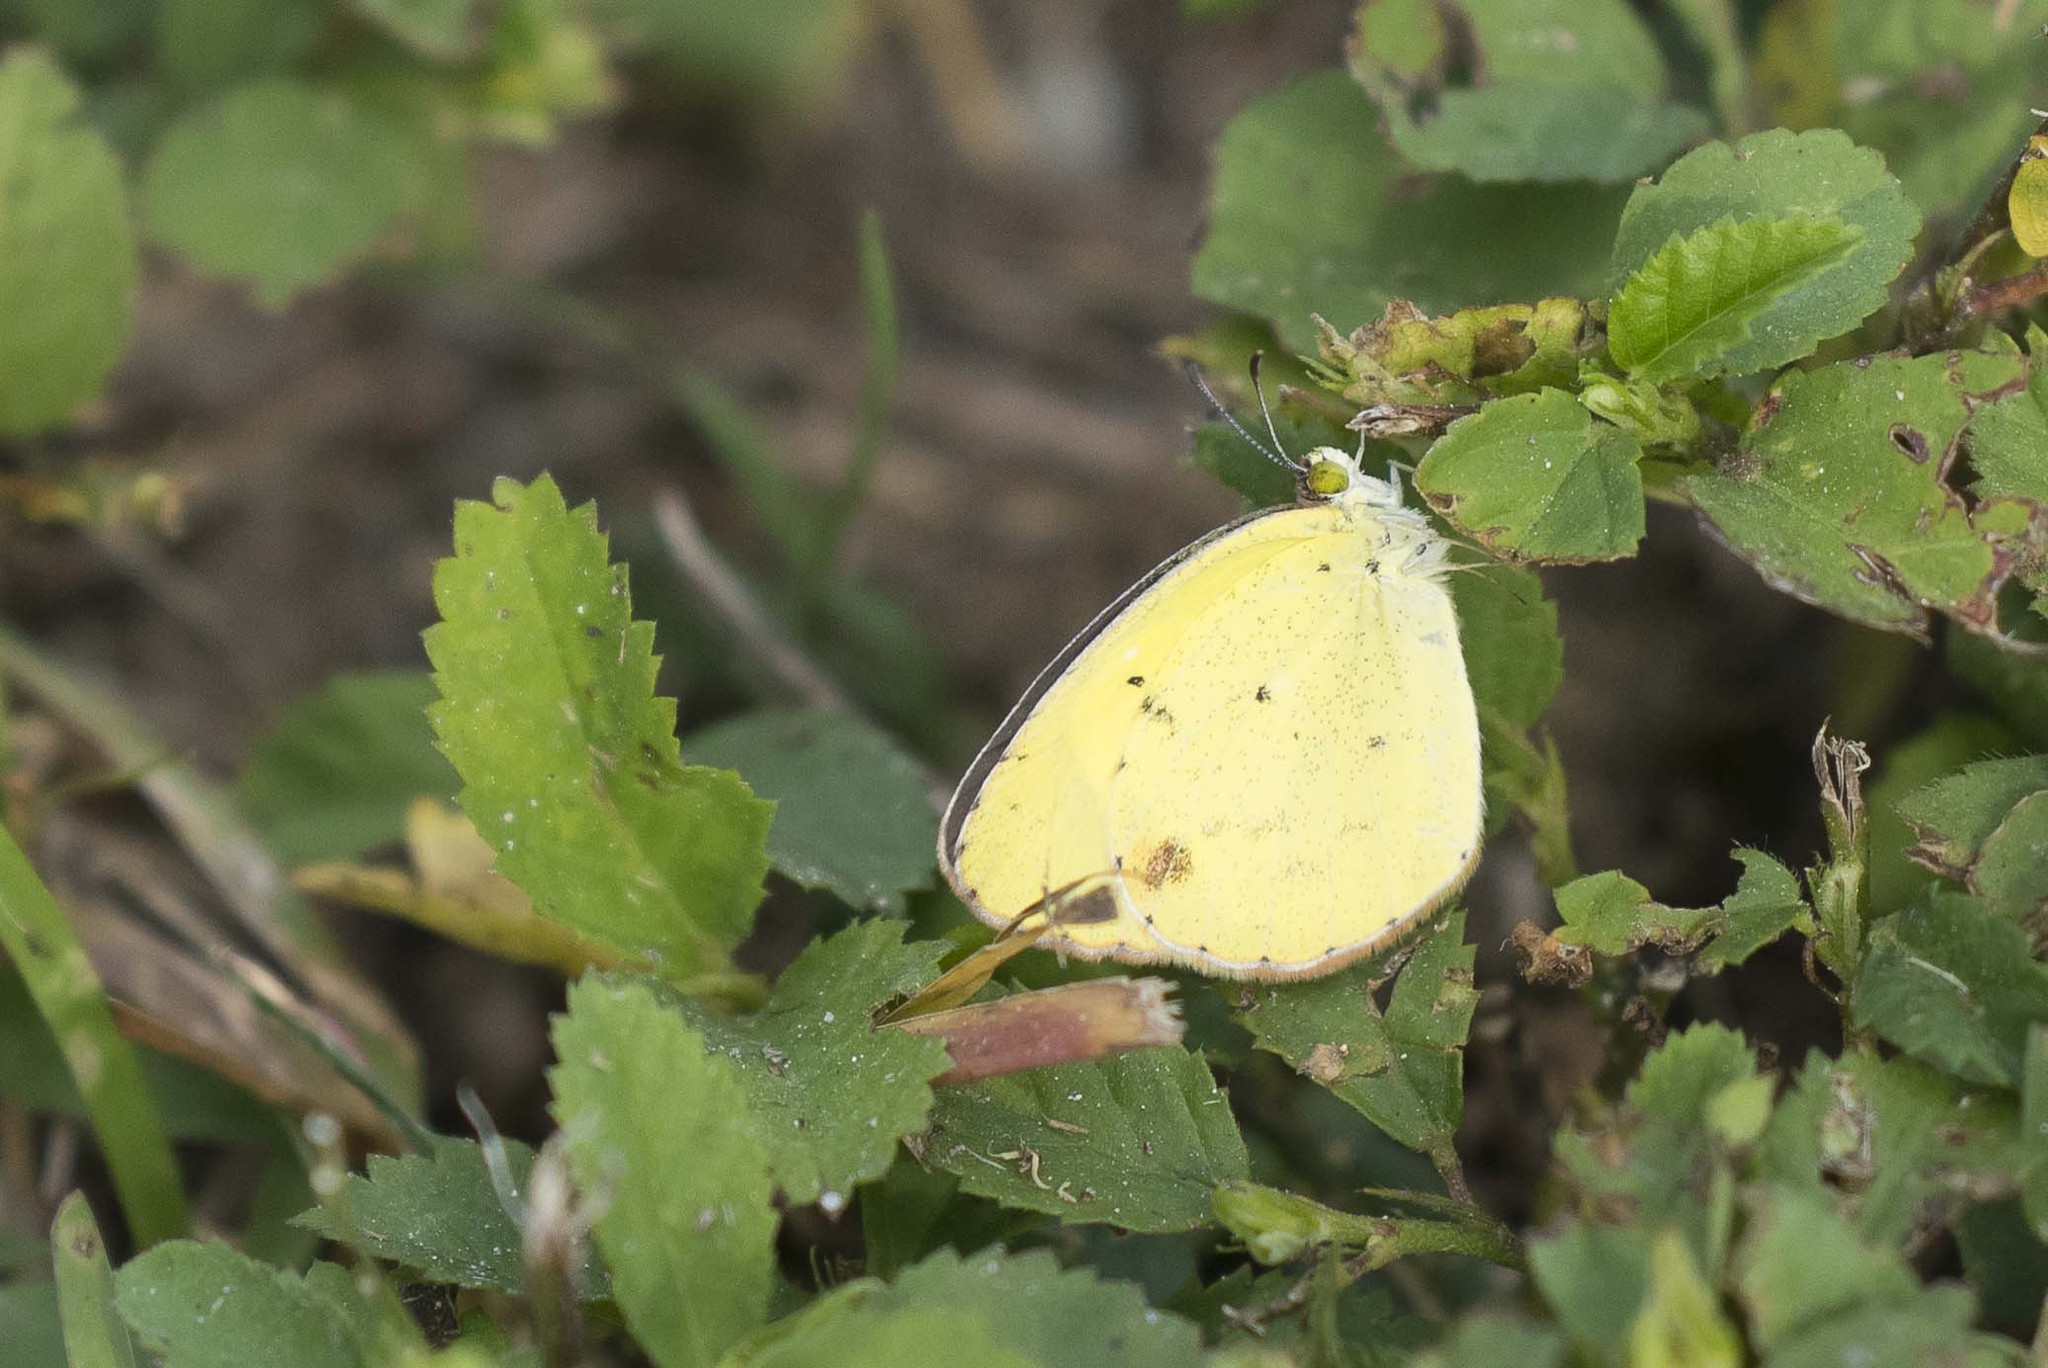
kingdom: Animalia
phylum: Arthropoda
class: Insecta
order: Lepidoptera
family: Pieridae
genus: Pyrisitia
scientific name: Pyrisitia lisa
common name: Little yellow
